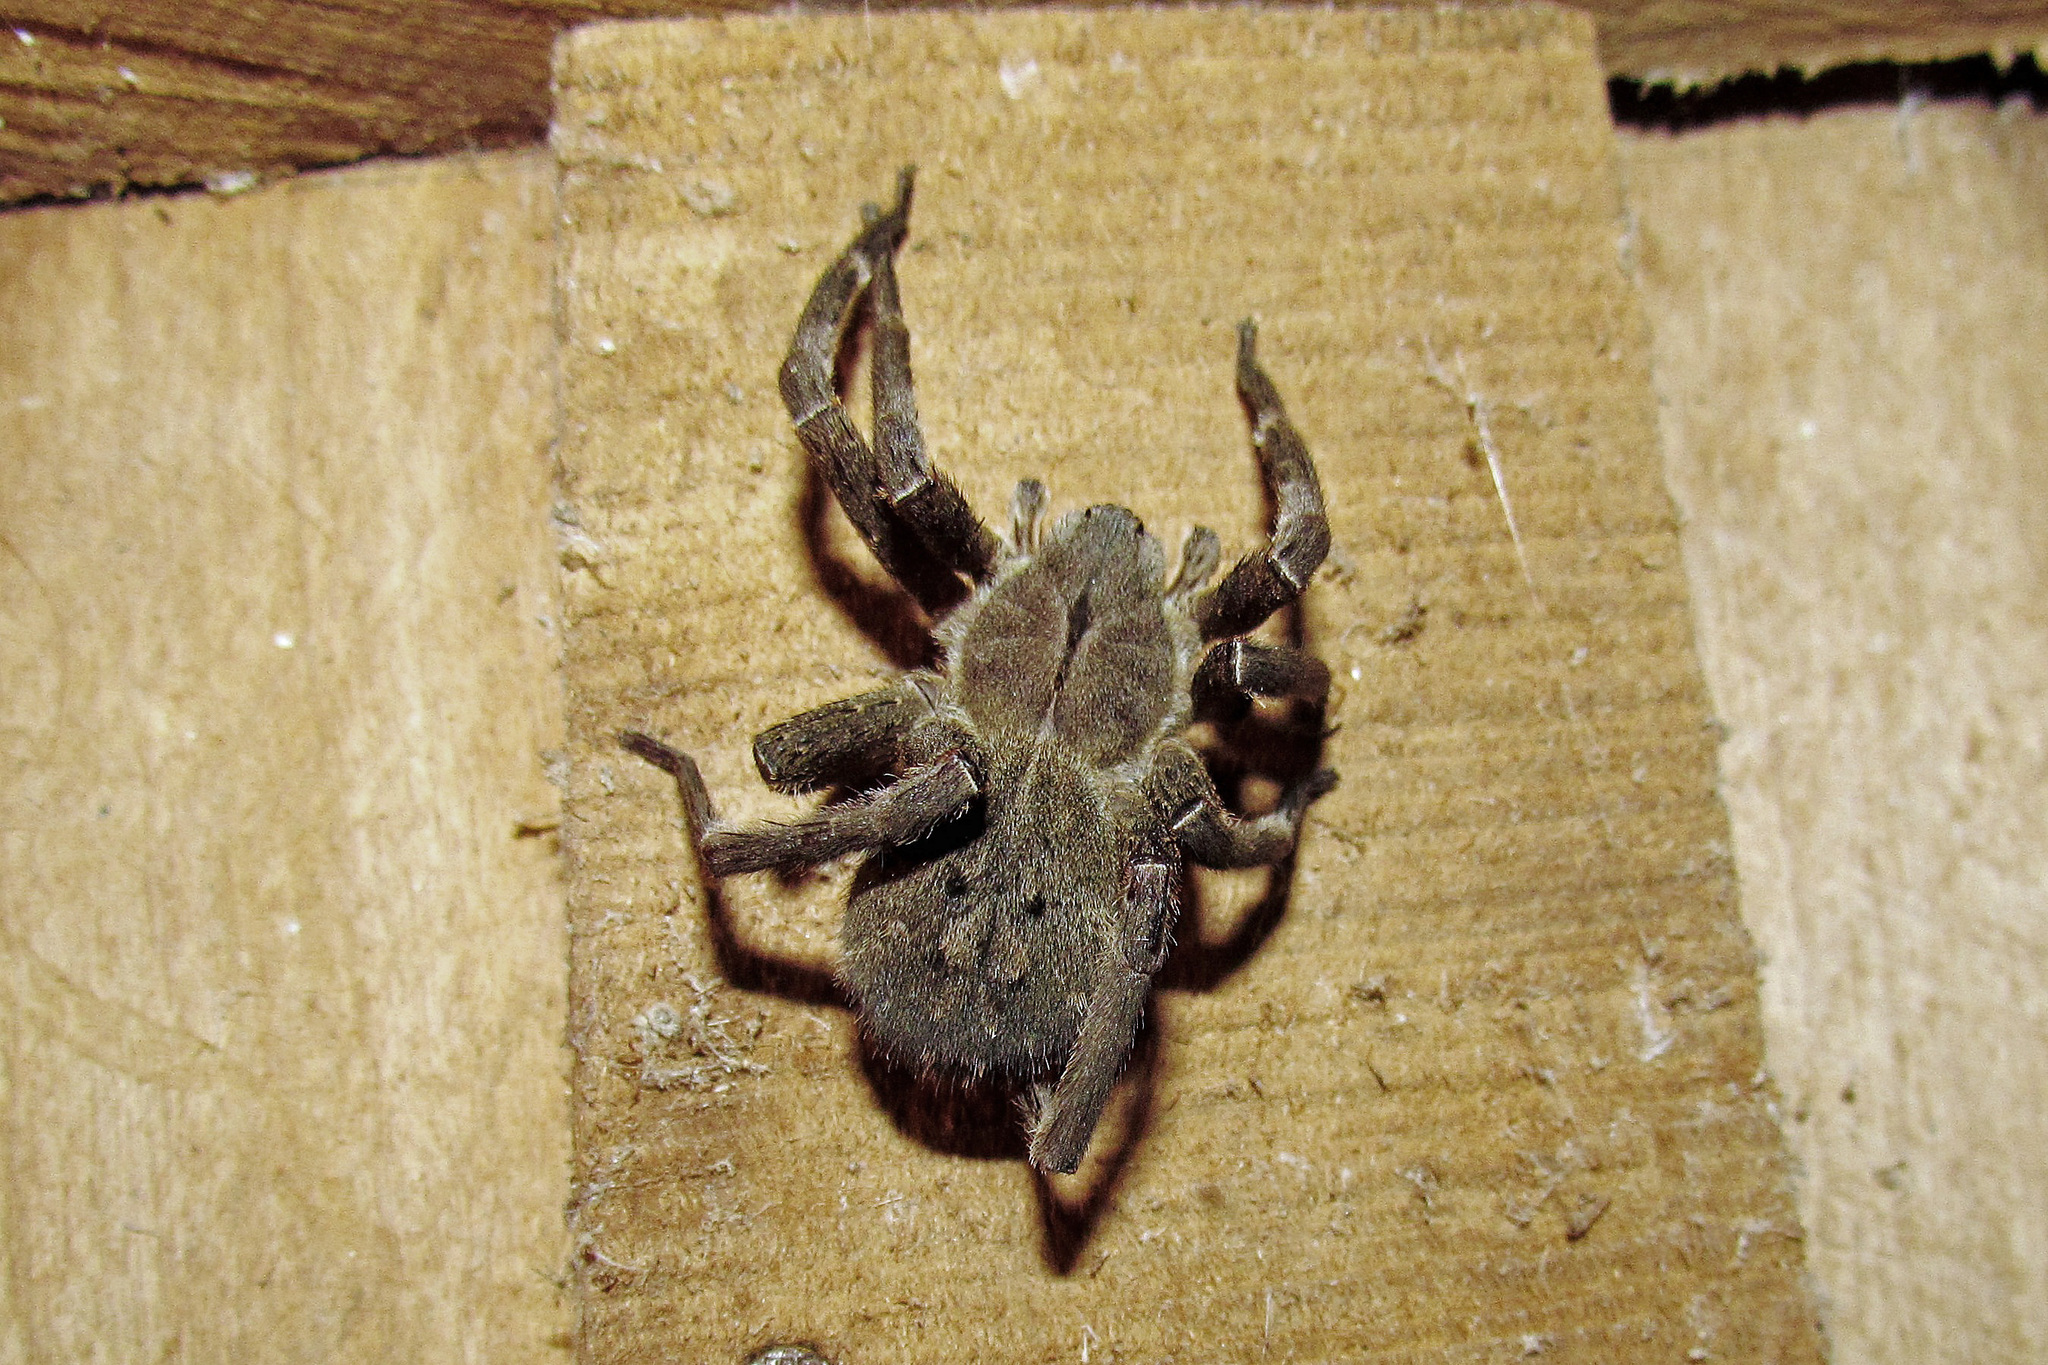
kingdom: Animalia
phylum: Arthropoda
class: Arachnida
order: Araneae
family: Ctenidae
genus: Phoneutria
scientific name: Phoneutria nigriventer
